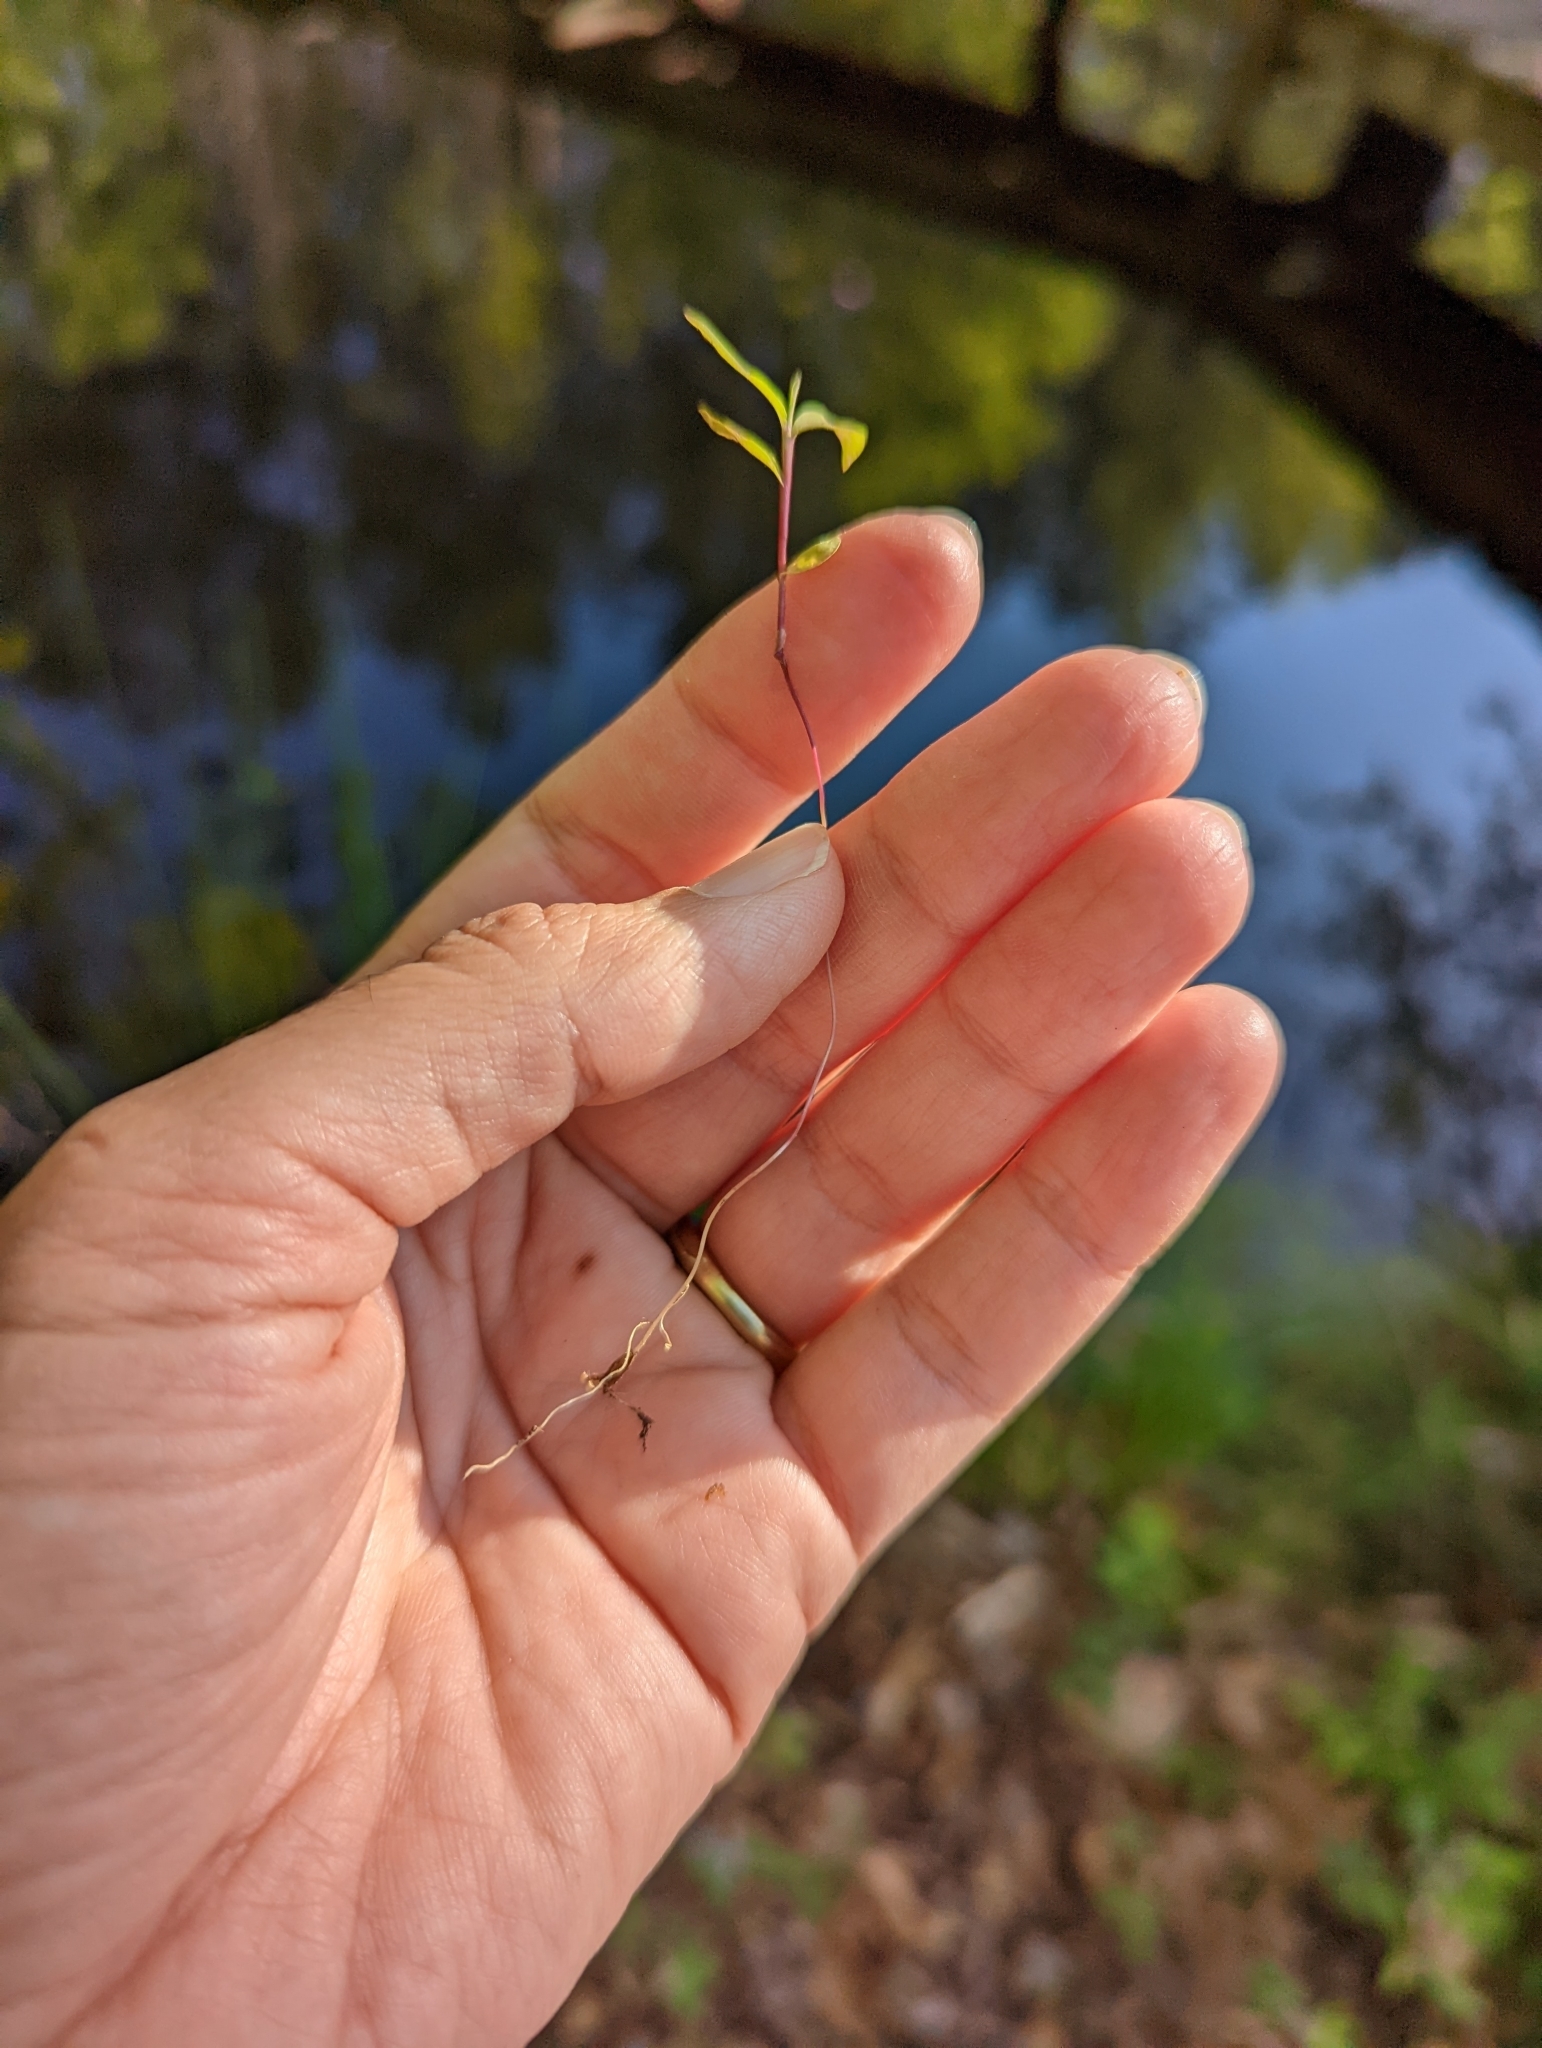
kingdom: Plantae
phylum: Tracheophyta
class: Liliopsida
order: Poales
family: Poaceae
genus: Microstegium
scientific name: Microstegium vimineum
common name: Japanese stiltgrass
